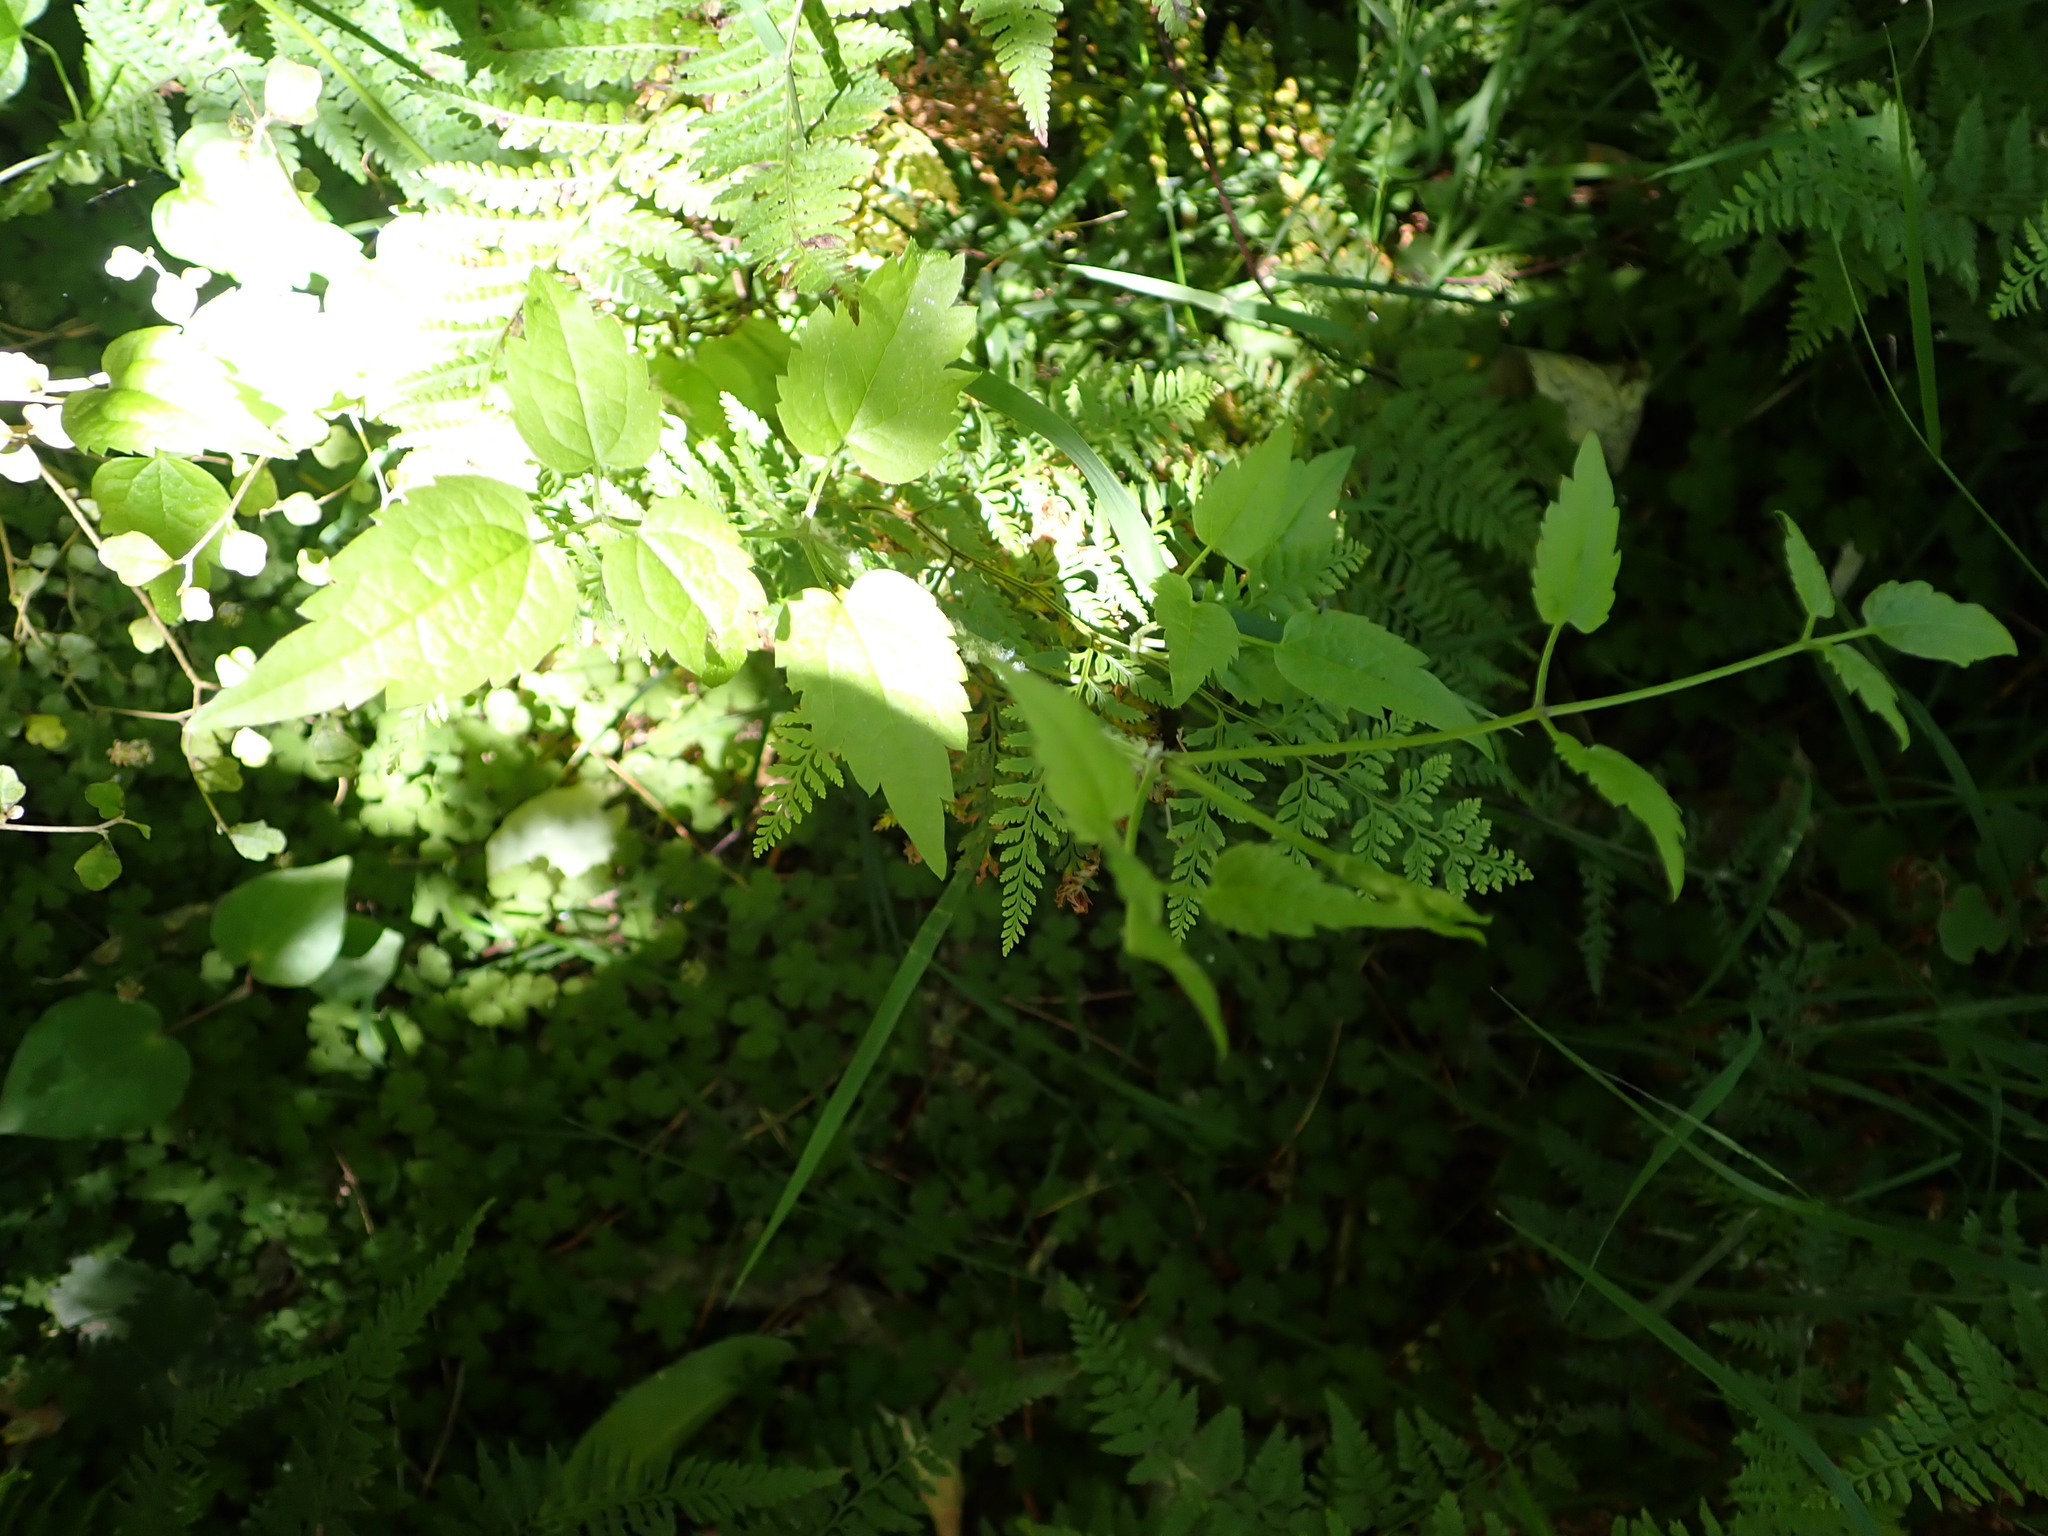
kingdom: Plantae
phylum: Tracheophyta
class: Magnoliopsida
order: Ranunculales
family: Ranunculaceae
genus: Clematis
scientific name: Clematis vitalba
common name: Evergreen clematis
